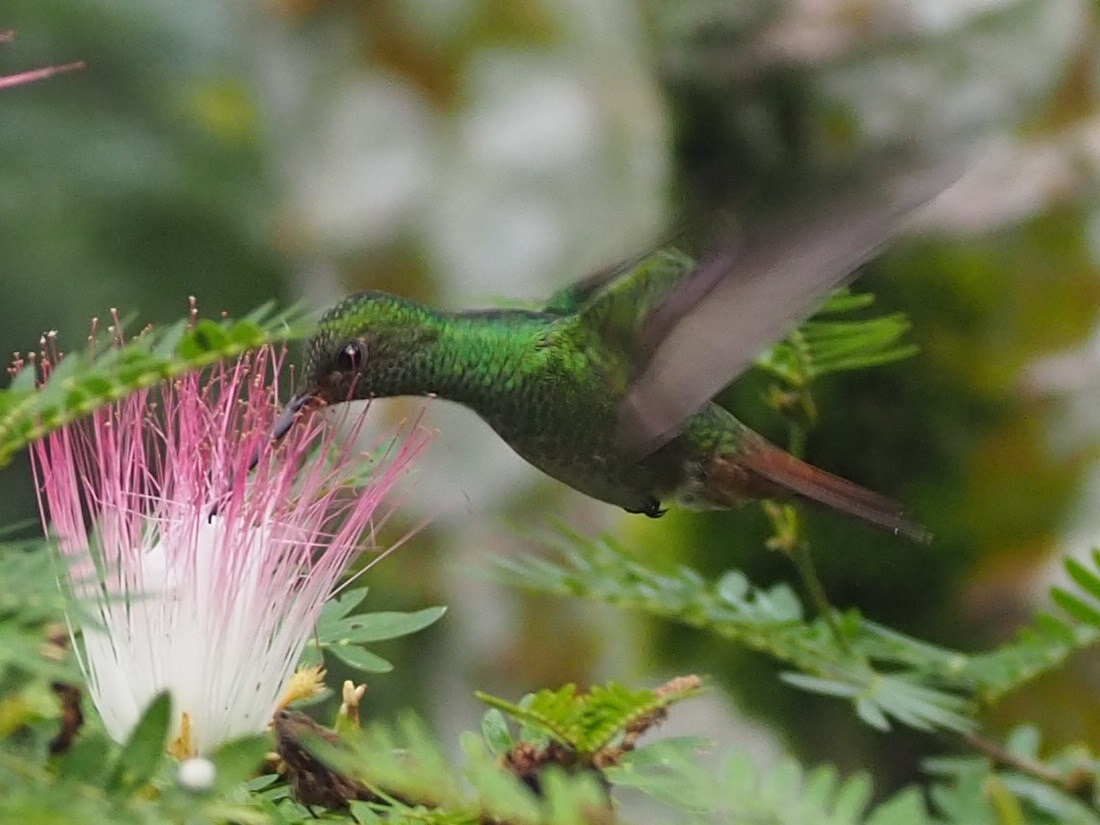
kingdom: Animalia
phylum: Chordata
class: Aves
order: Apodiformes
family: Trochilidae
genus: Amazilia
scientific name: Amazilia tzacatl
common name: Rufous-tailed hummingbird
